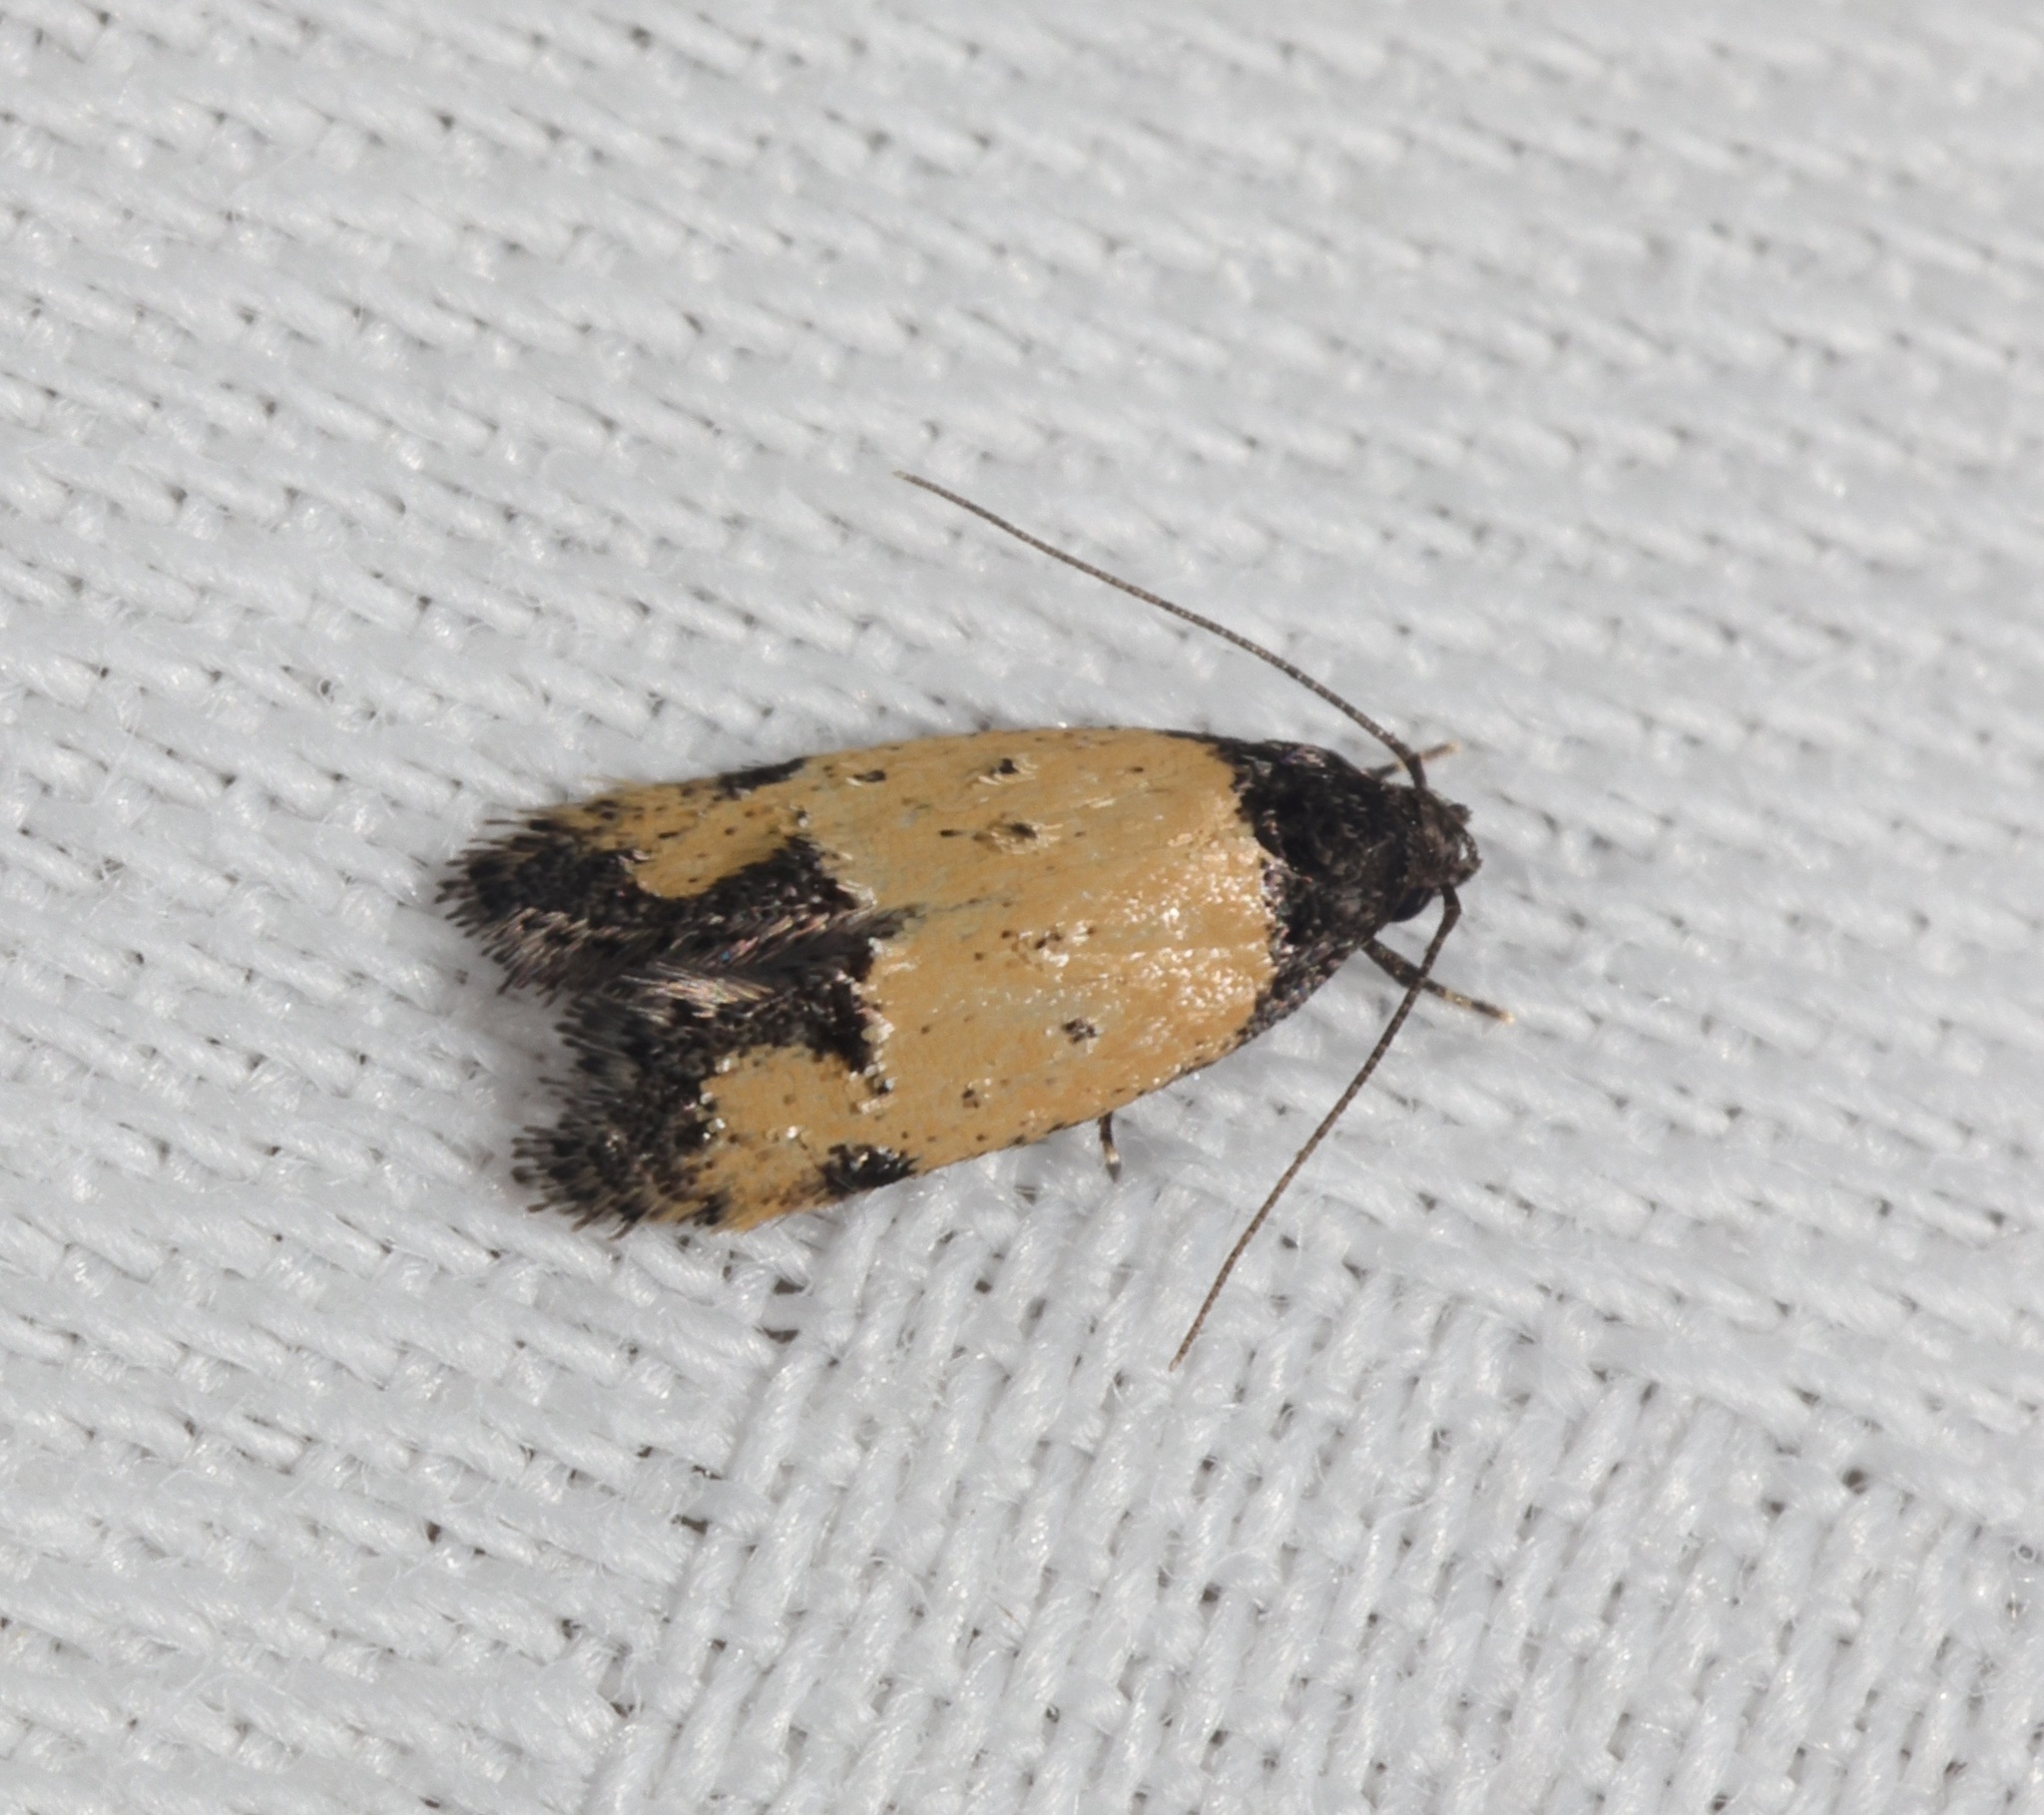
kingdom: Animalia
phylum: Arthropoda
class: Insecta
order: Lepidoptera
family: Oecophoridae
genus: Tyrolimnas
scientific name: Tyrolimnas anthraconesa
